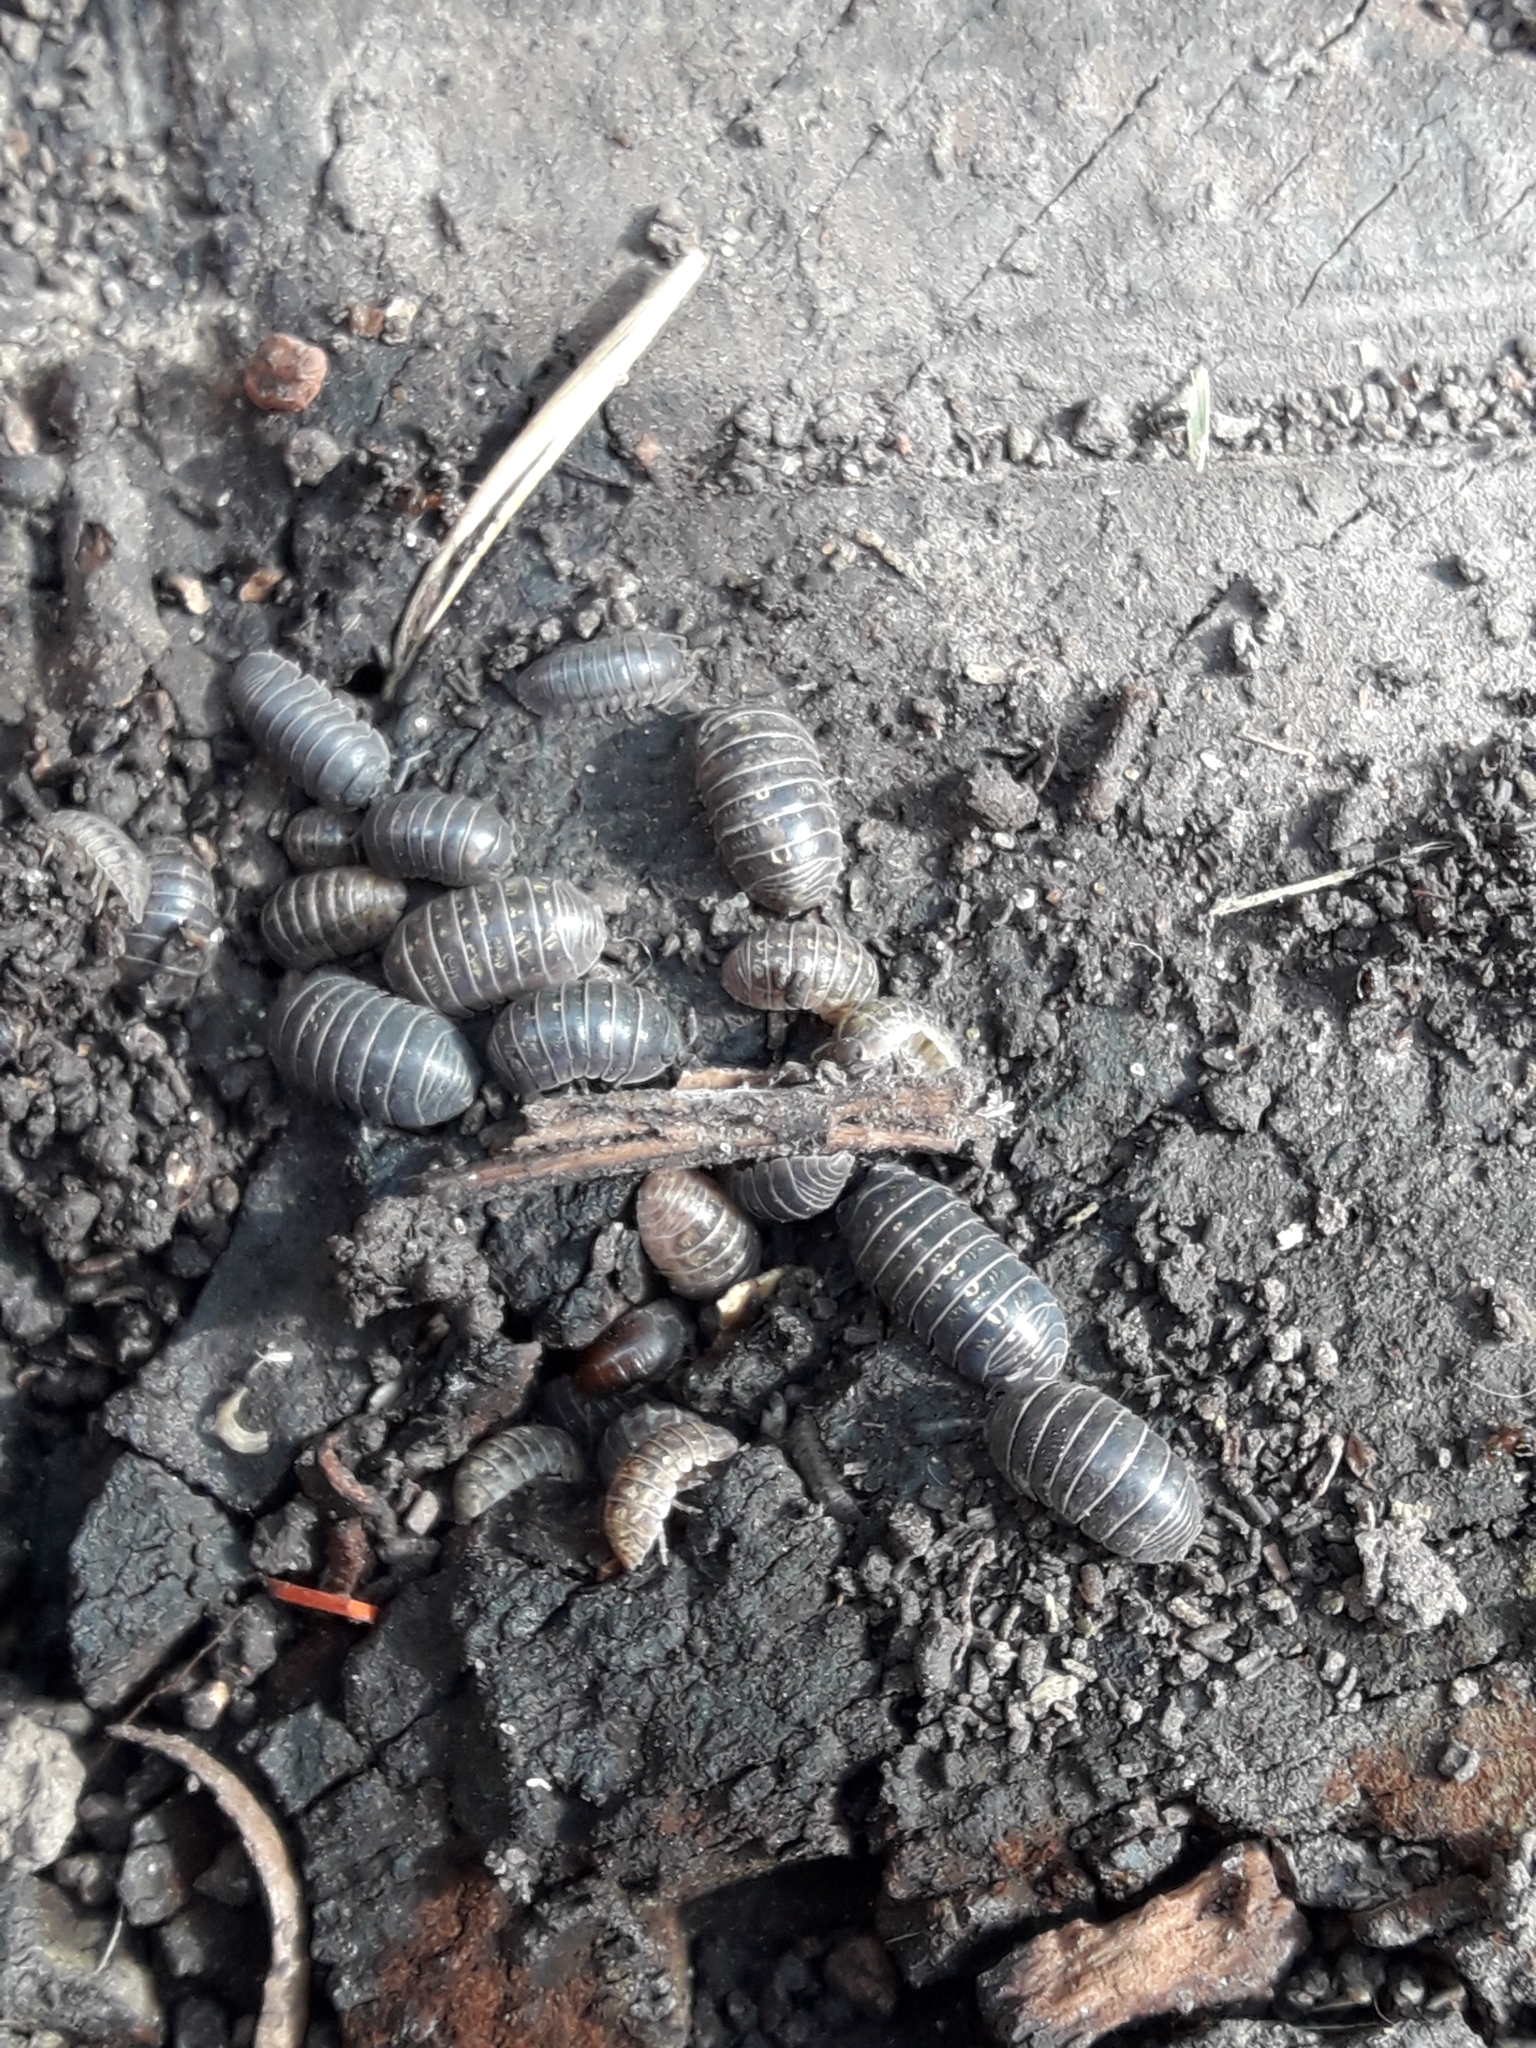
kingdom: Animalia
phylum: Arthropoda
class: Malacostraca
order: Isopoda
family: Armadillidiidae
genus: Armadillidium
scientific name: Armadillidium vulgare
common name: Common pill woodlouse
